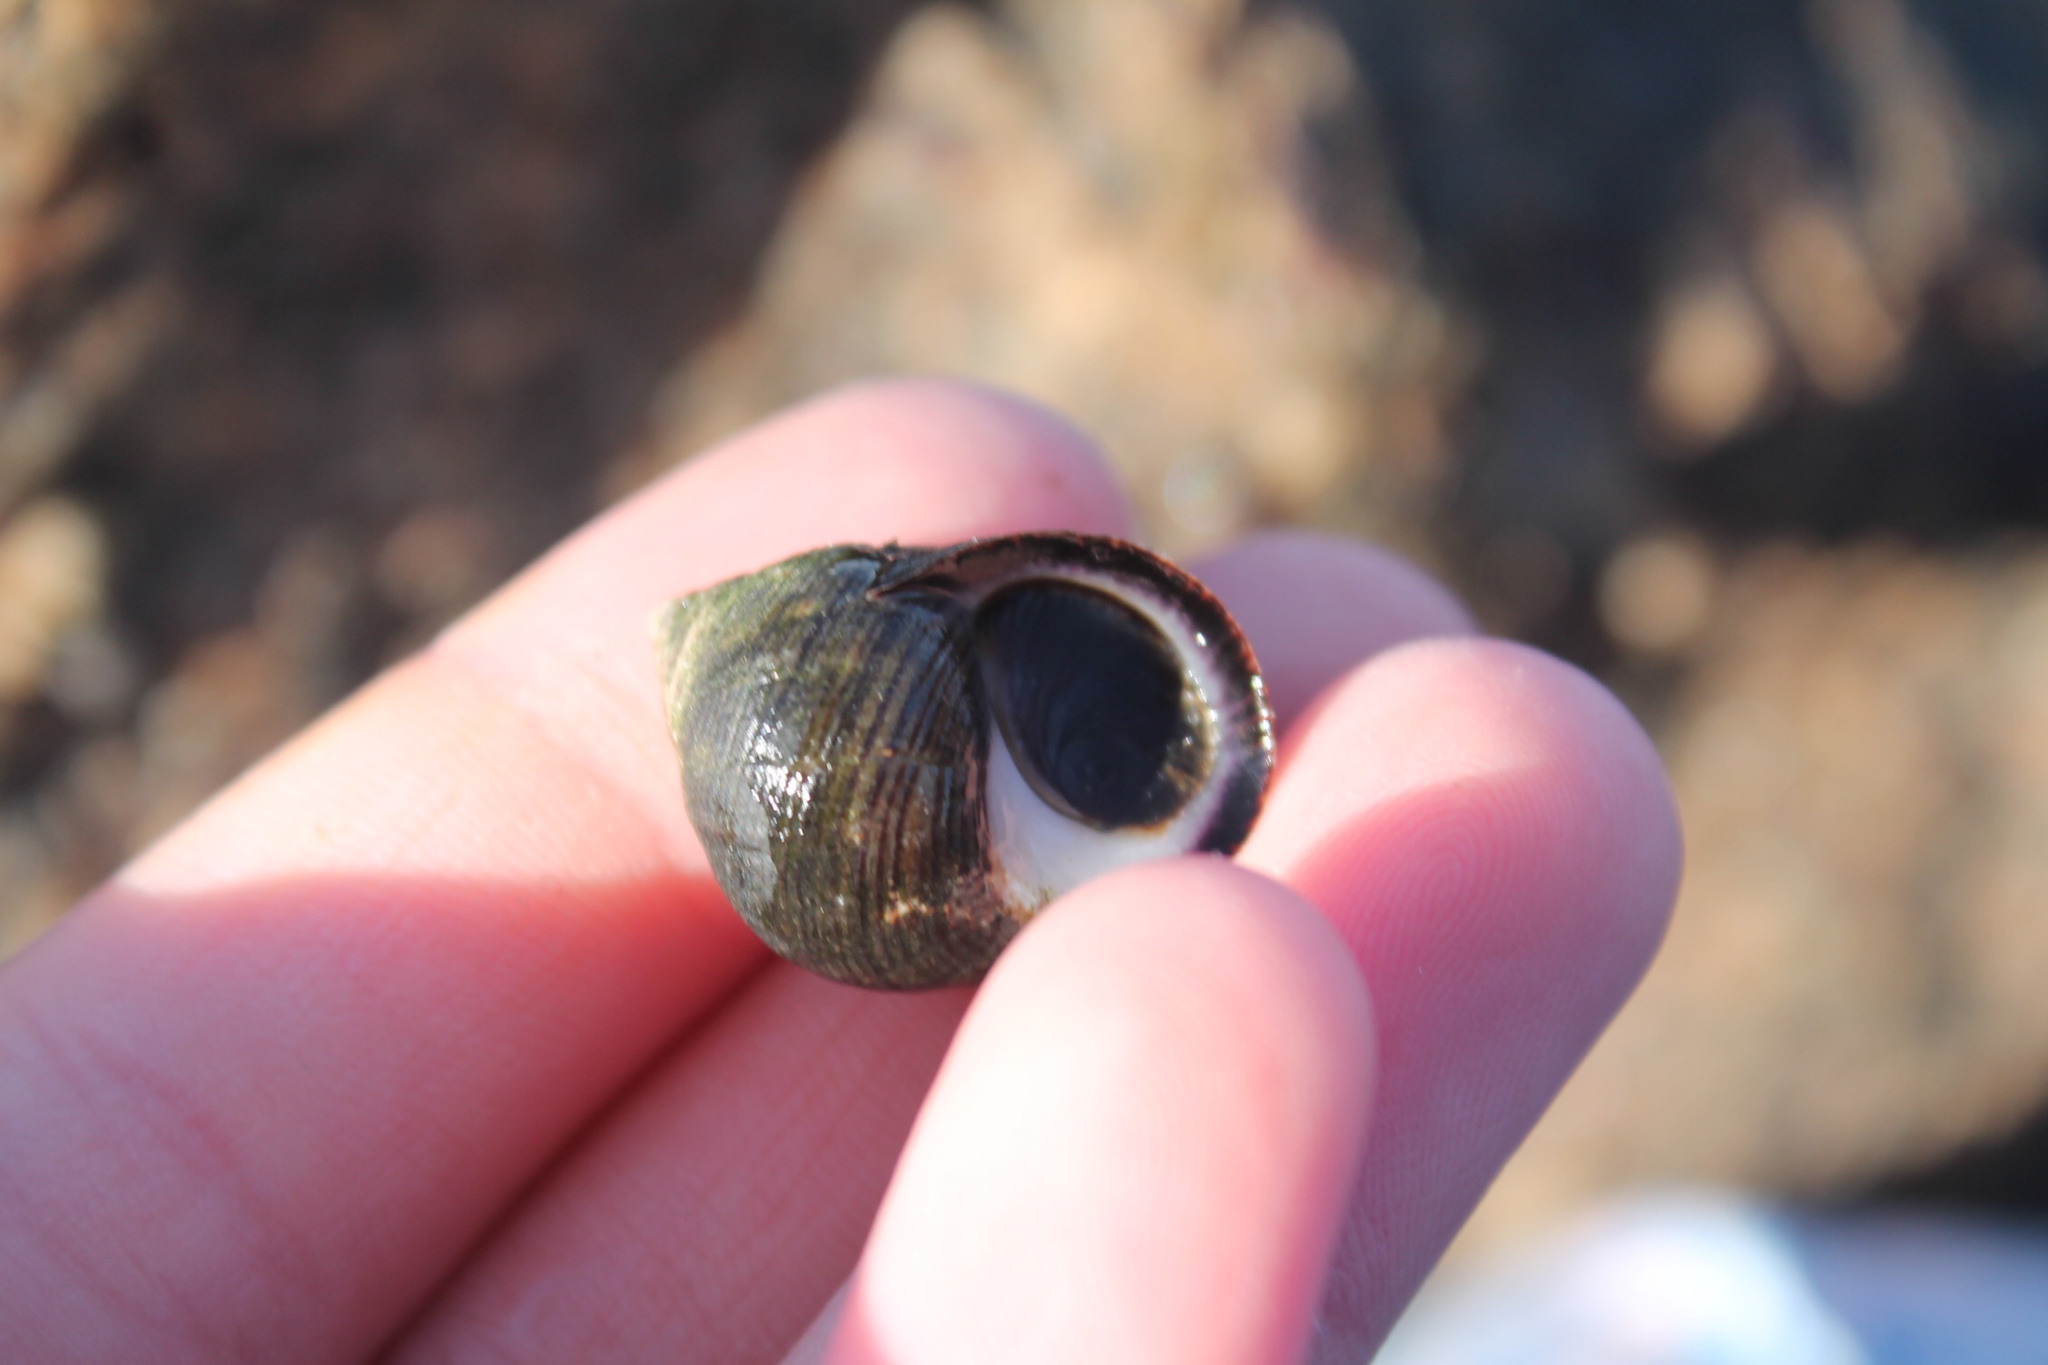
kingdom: Animalia
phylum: Mollusca
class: Gastropoda
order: Littorinimorpha
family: Littorinidae
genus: Littorina
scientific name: Littorina littorea
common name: Common periwinkle
